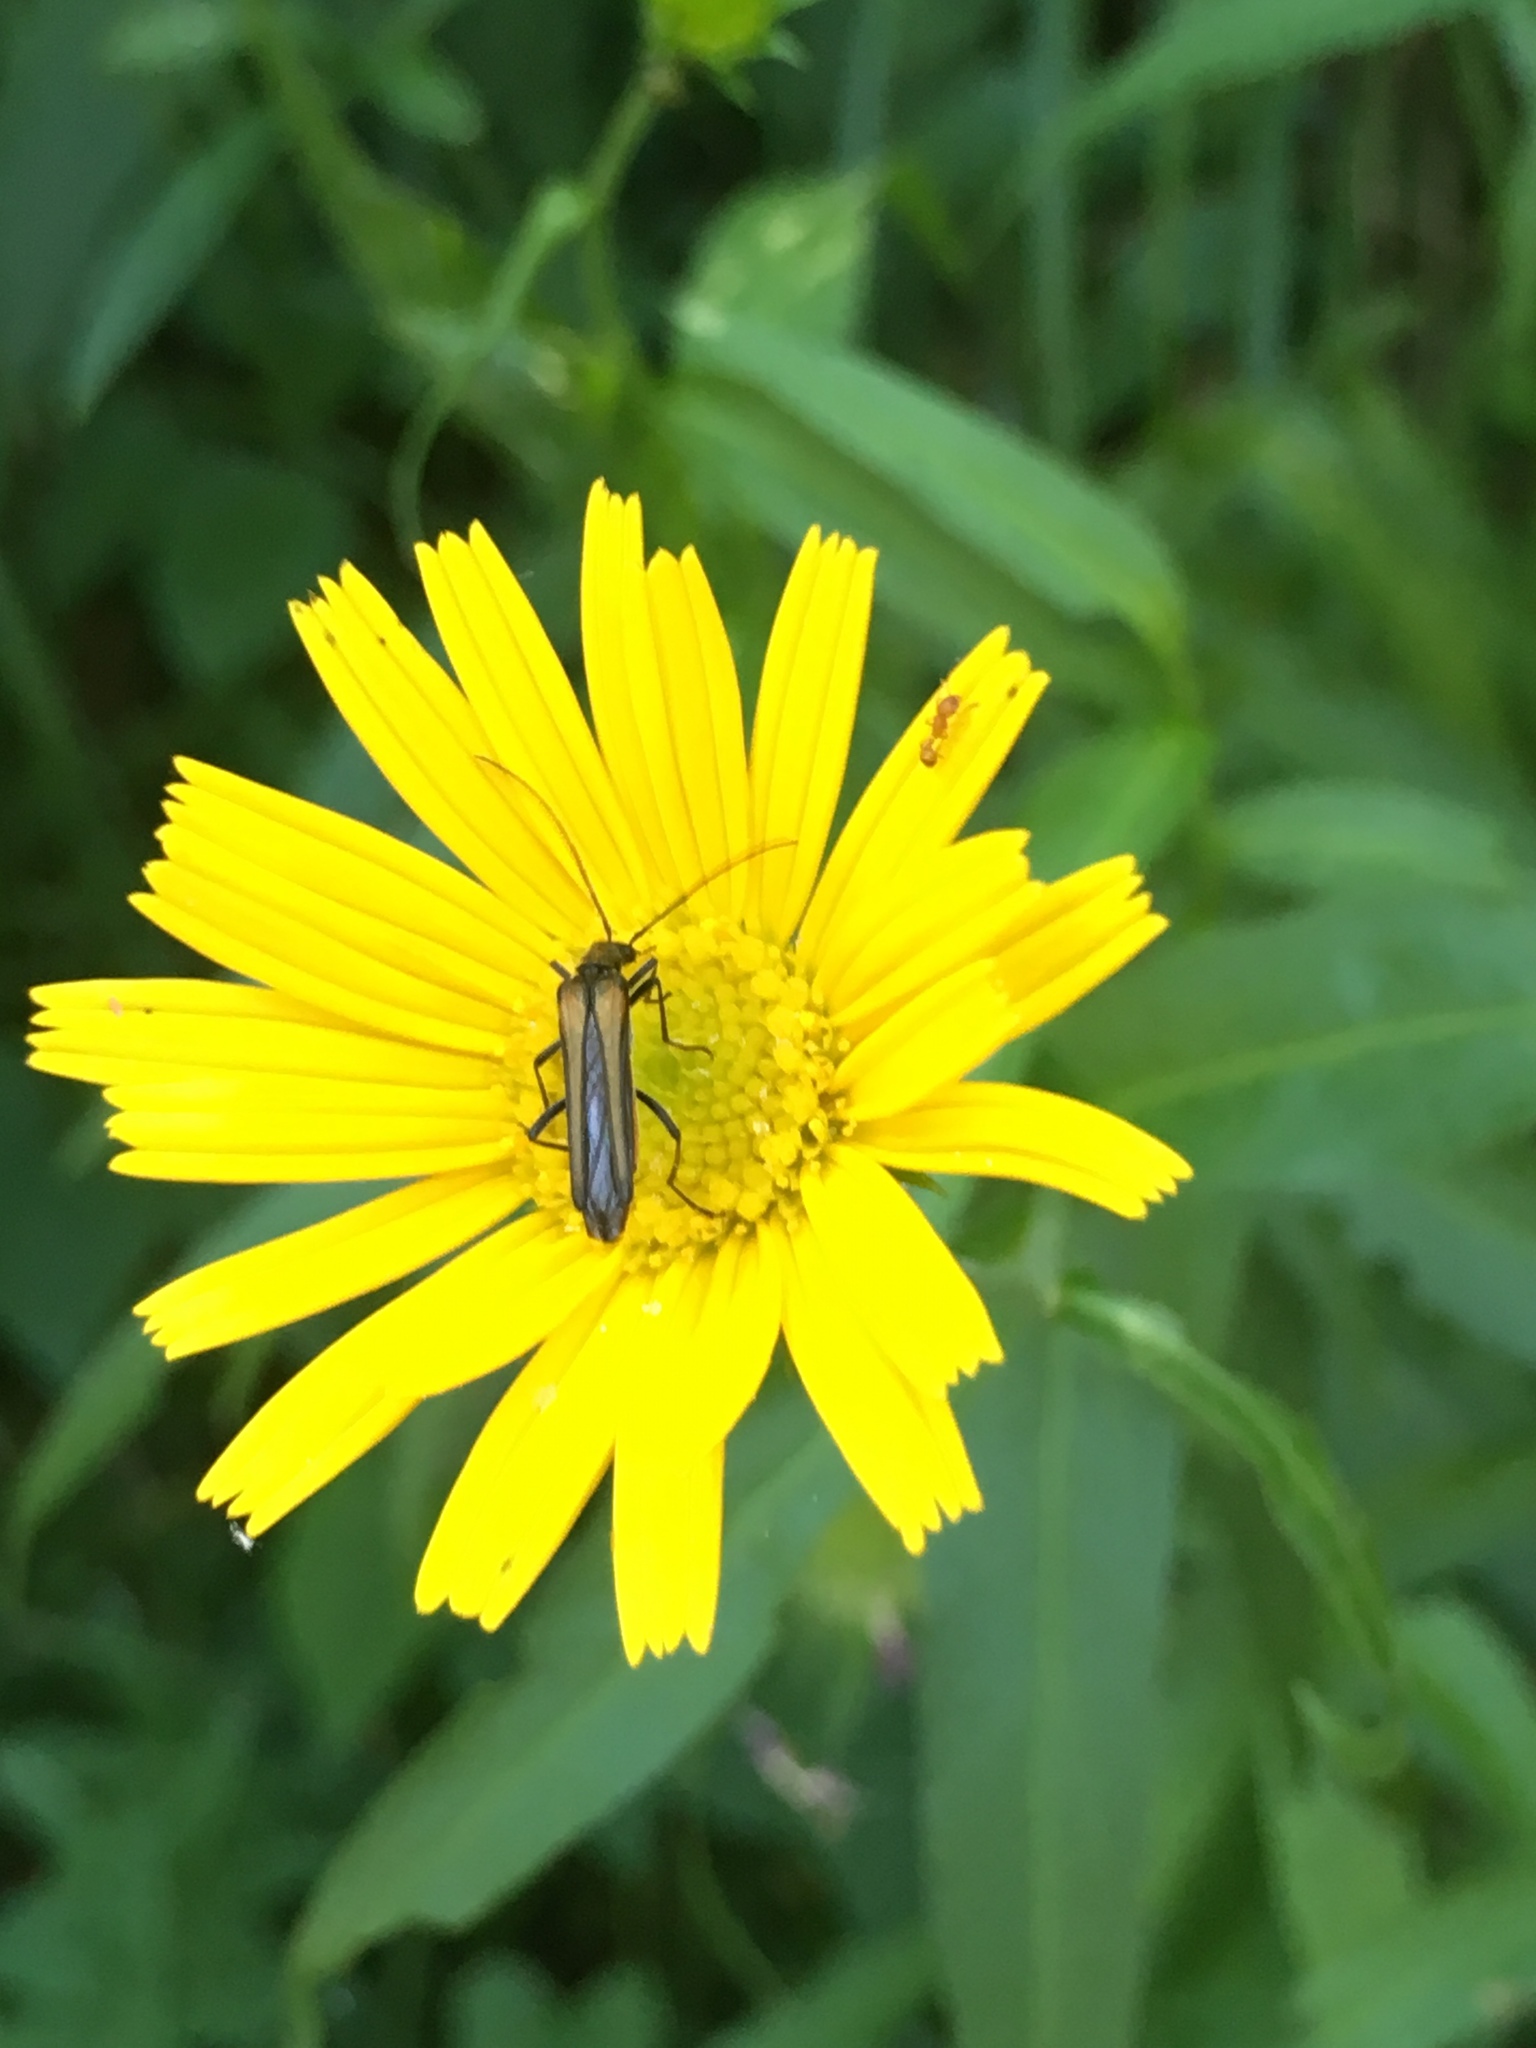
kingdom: Animalia
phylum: Arthropoda
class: Insecta
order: Coleoptera
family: Oedemeridae
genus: Oedemera
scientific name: Oedemera pthysica
